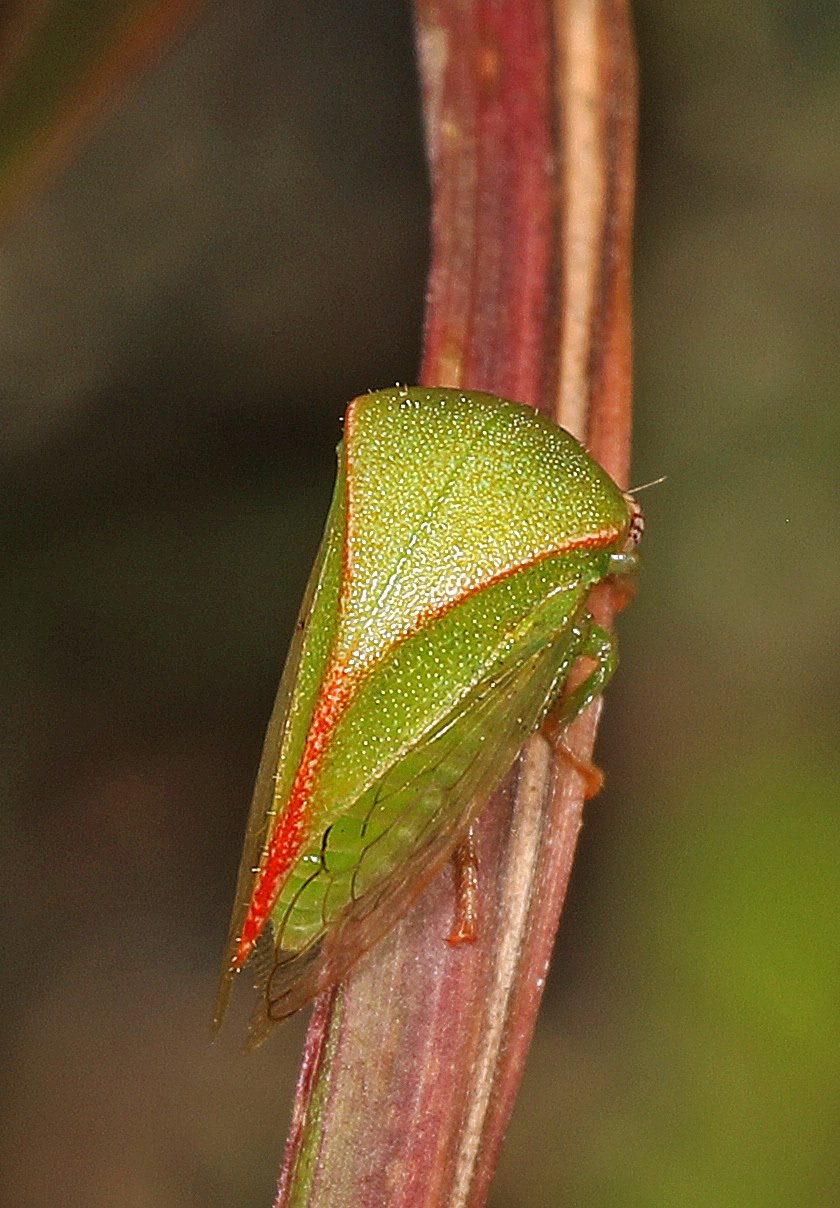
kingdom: Animalia
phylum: Arthropoda
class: Insecta
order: Hemiptera
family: Membracidae
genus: Spissistilus
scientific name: Spissistilus festina
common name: Membracid bug
